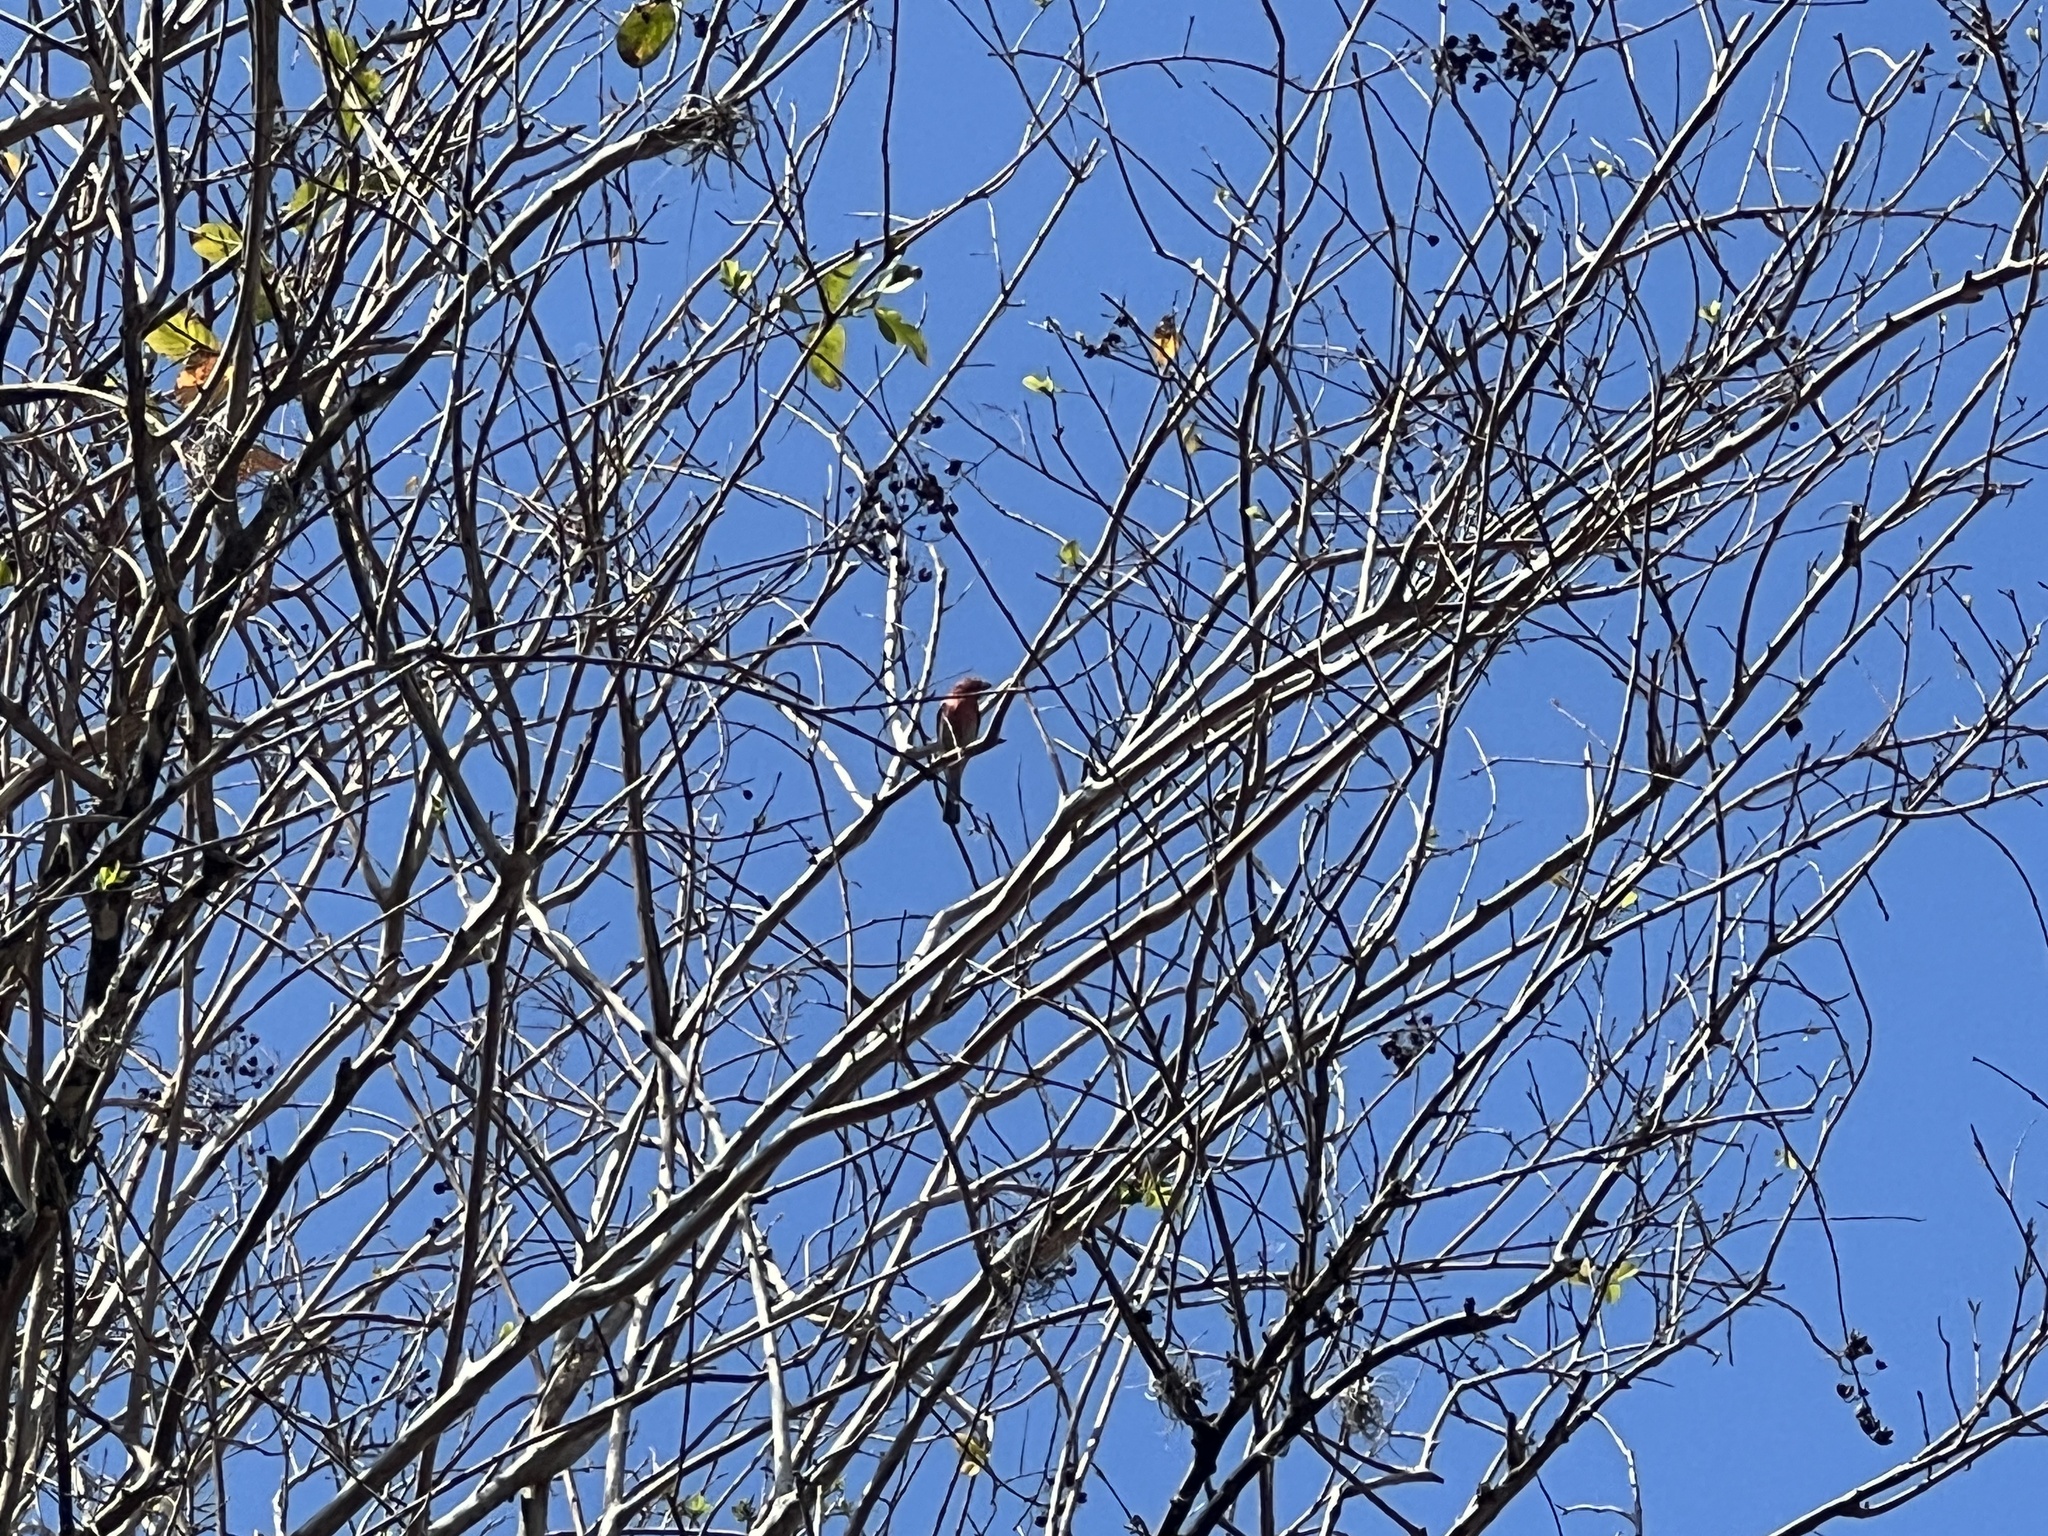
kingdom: Animalia
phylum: Chordata
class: Aves
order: Passeriformes
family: Fringillidae
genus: Haemorhous
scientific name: Haemorhous mexicanus
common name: House finch
